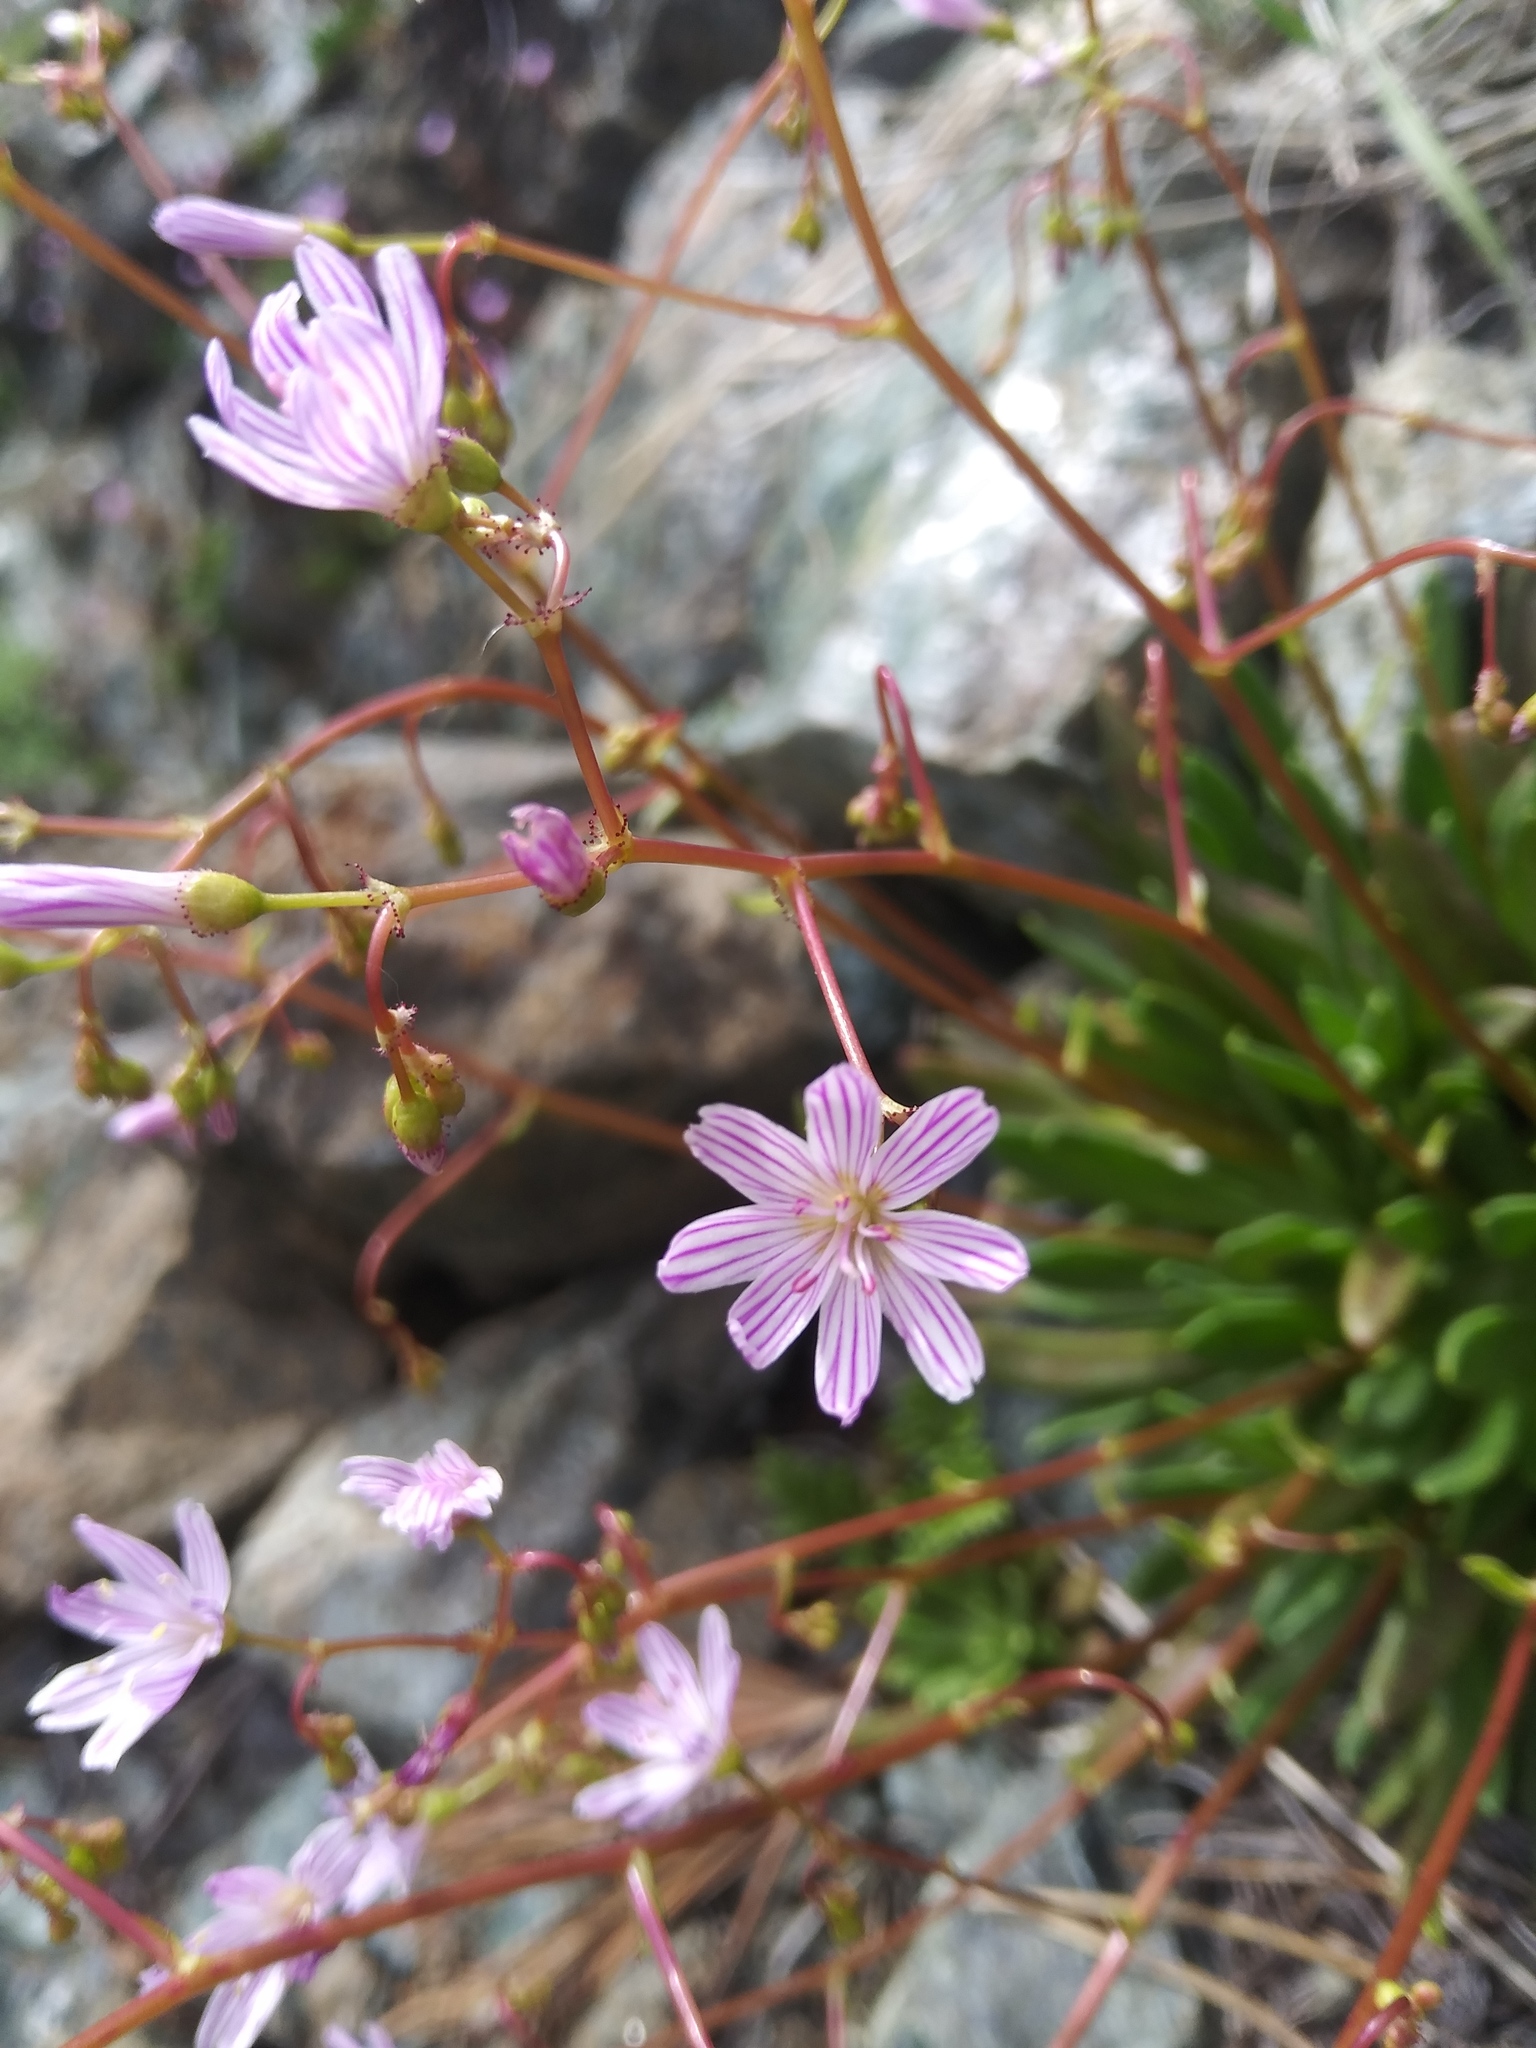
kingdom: Plantae
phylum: Tracheophyta
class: Magnoliopsida
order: Caryophyllales
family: Montiaceae
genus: Lewisia
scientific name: Lewisia columbiana
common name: Columbia lewisia
